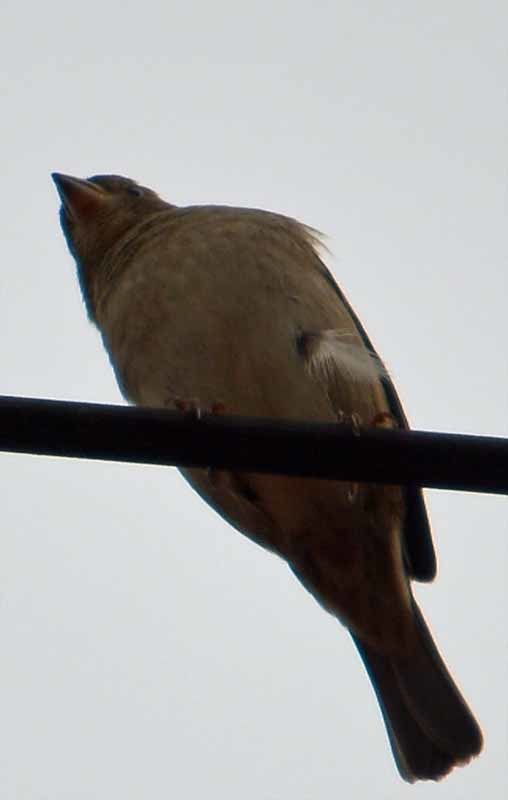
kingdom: Animalia
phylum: Chordata
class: Aves
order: Passeriformes
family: Passeridae
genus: Passer
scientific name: Passer domesticus
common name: House sparrow
